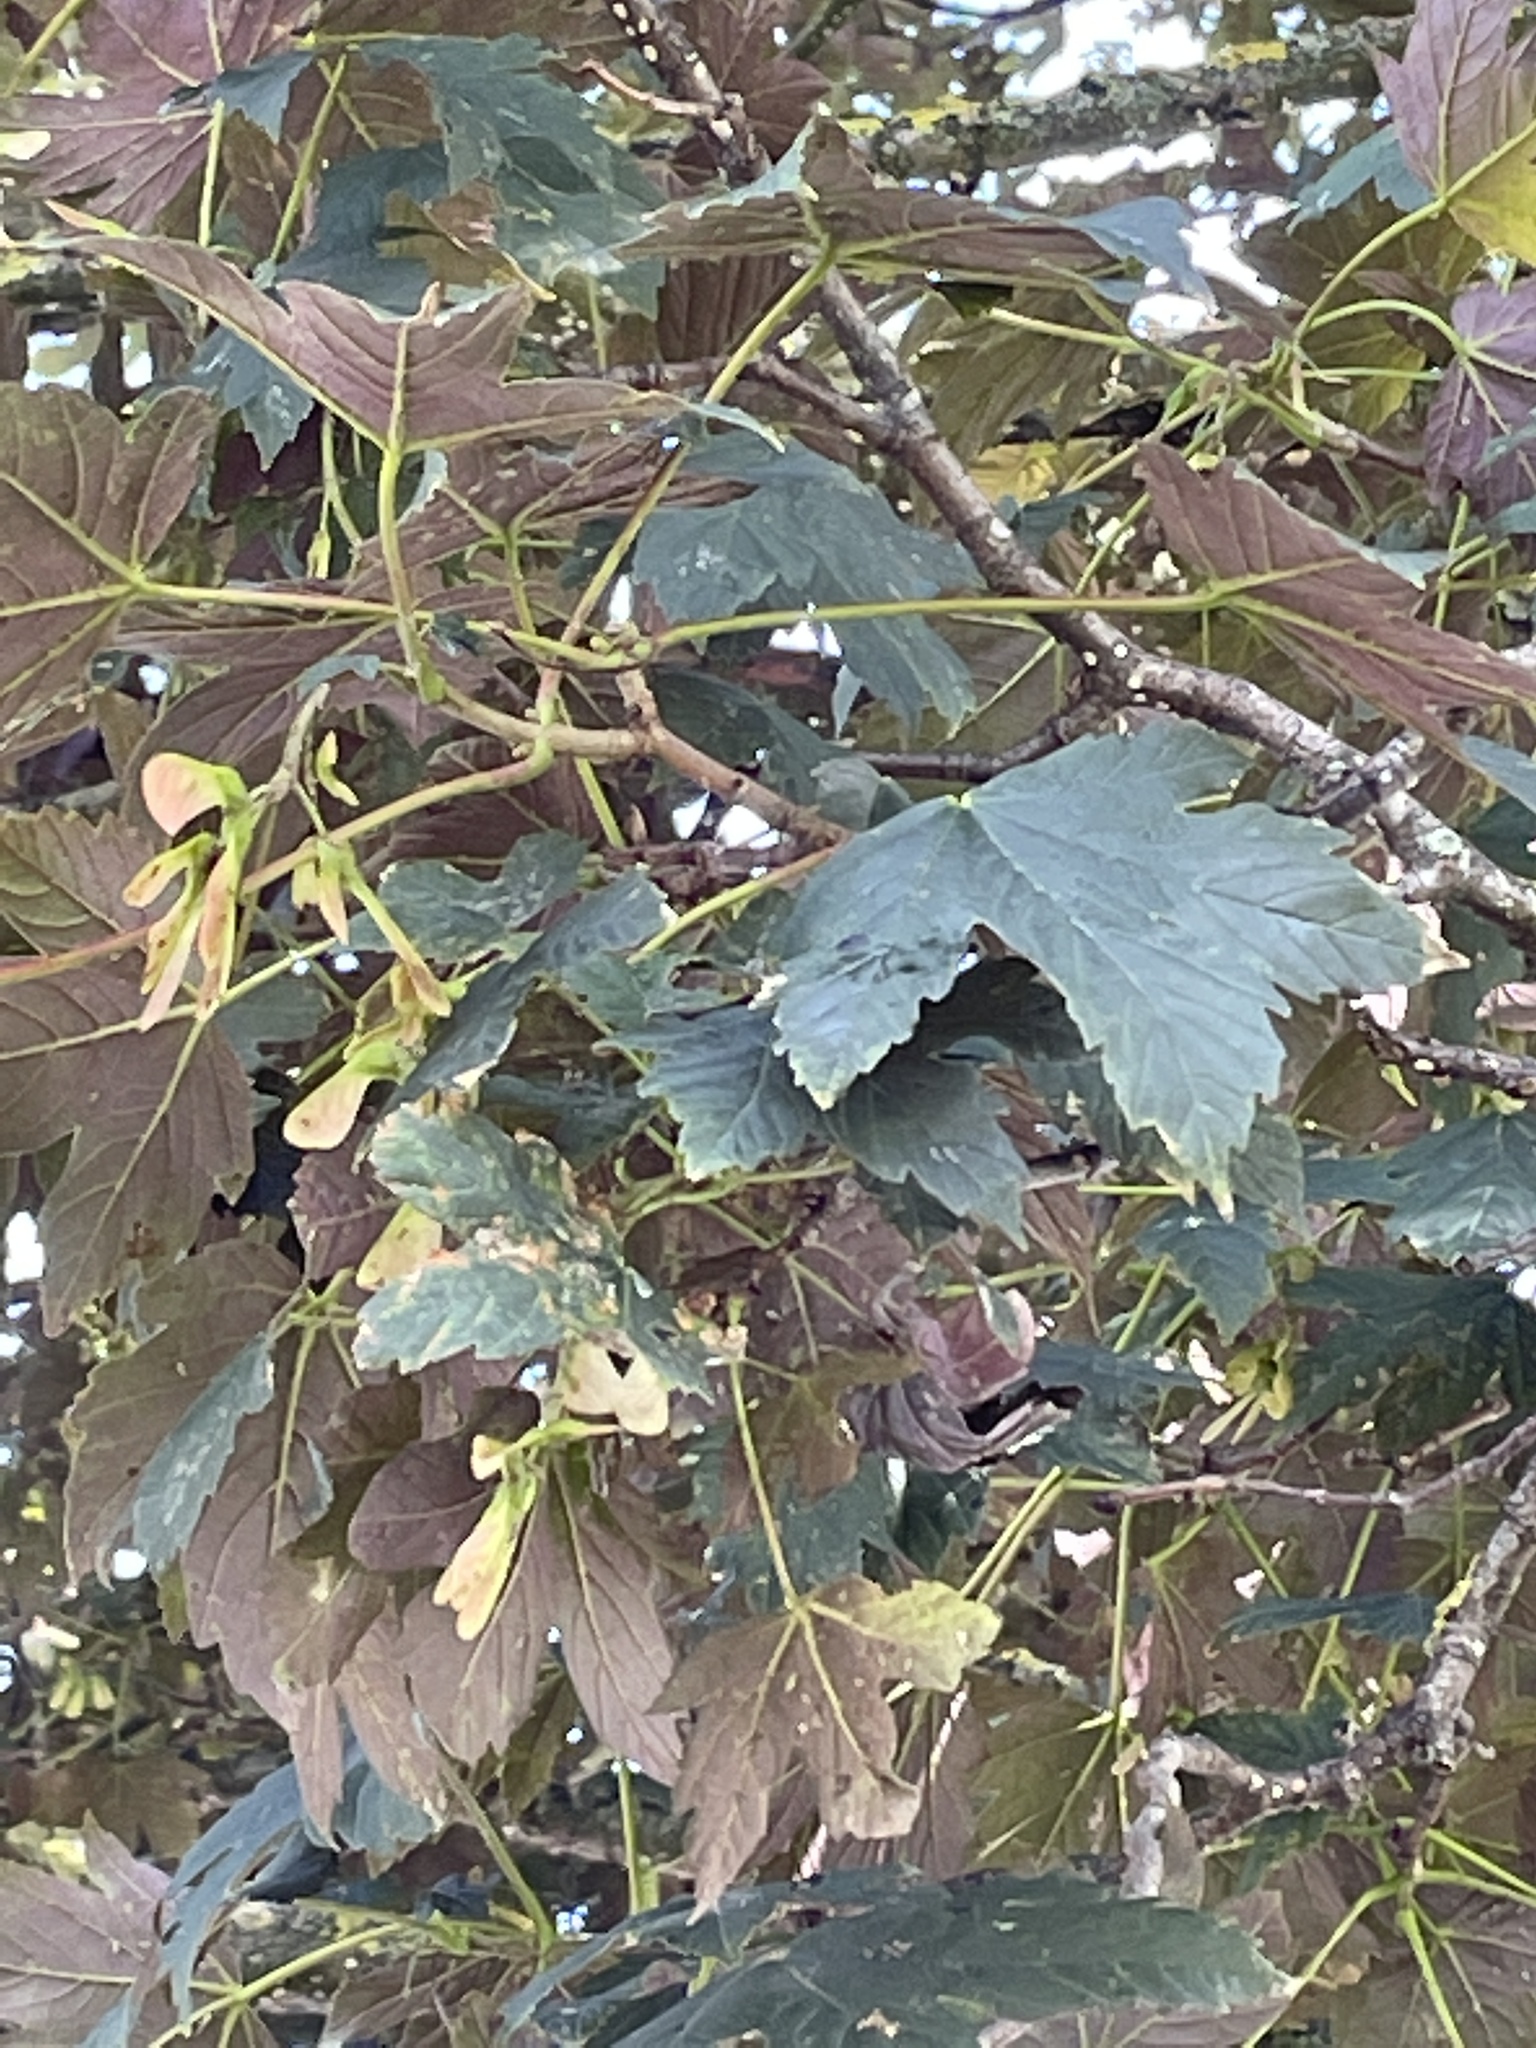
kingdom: Plantae
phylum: Tracheophyta
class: Magnoliopsida
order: Sapindales
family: Sapindaceae
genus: Acer
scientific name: Acer pseudoplatanus
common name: Sycamore
